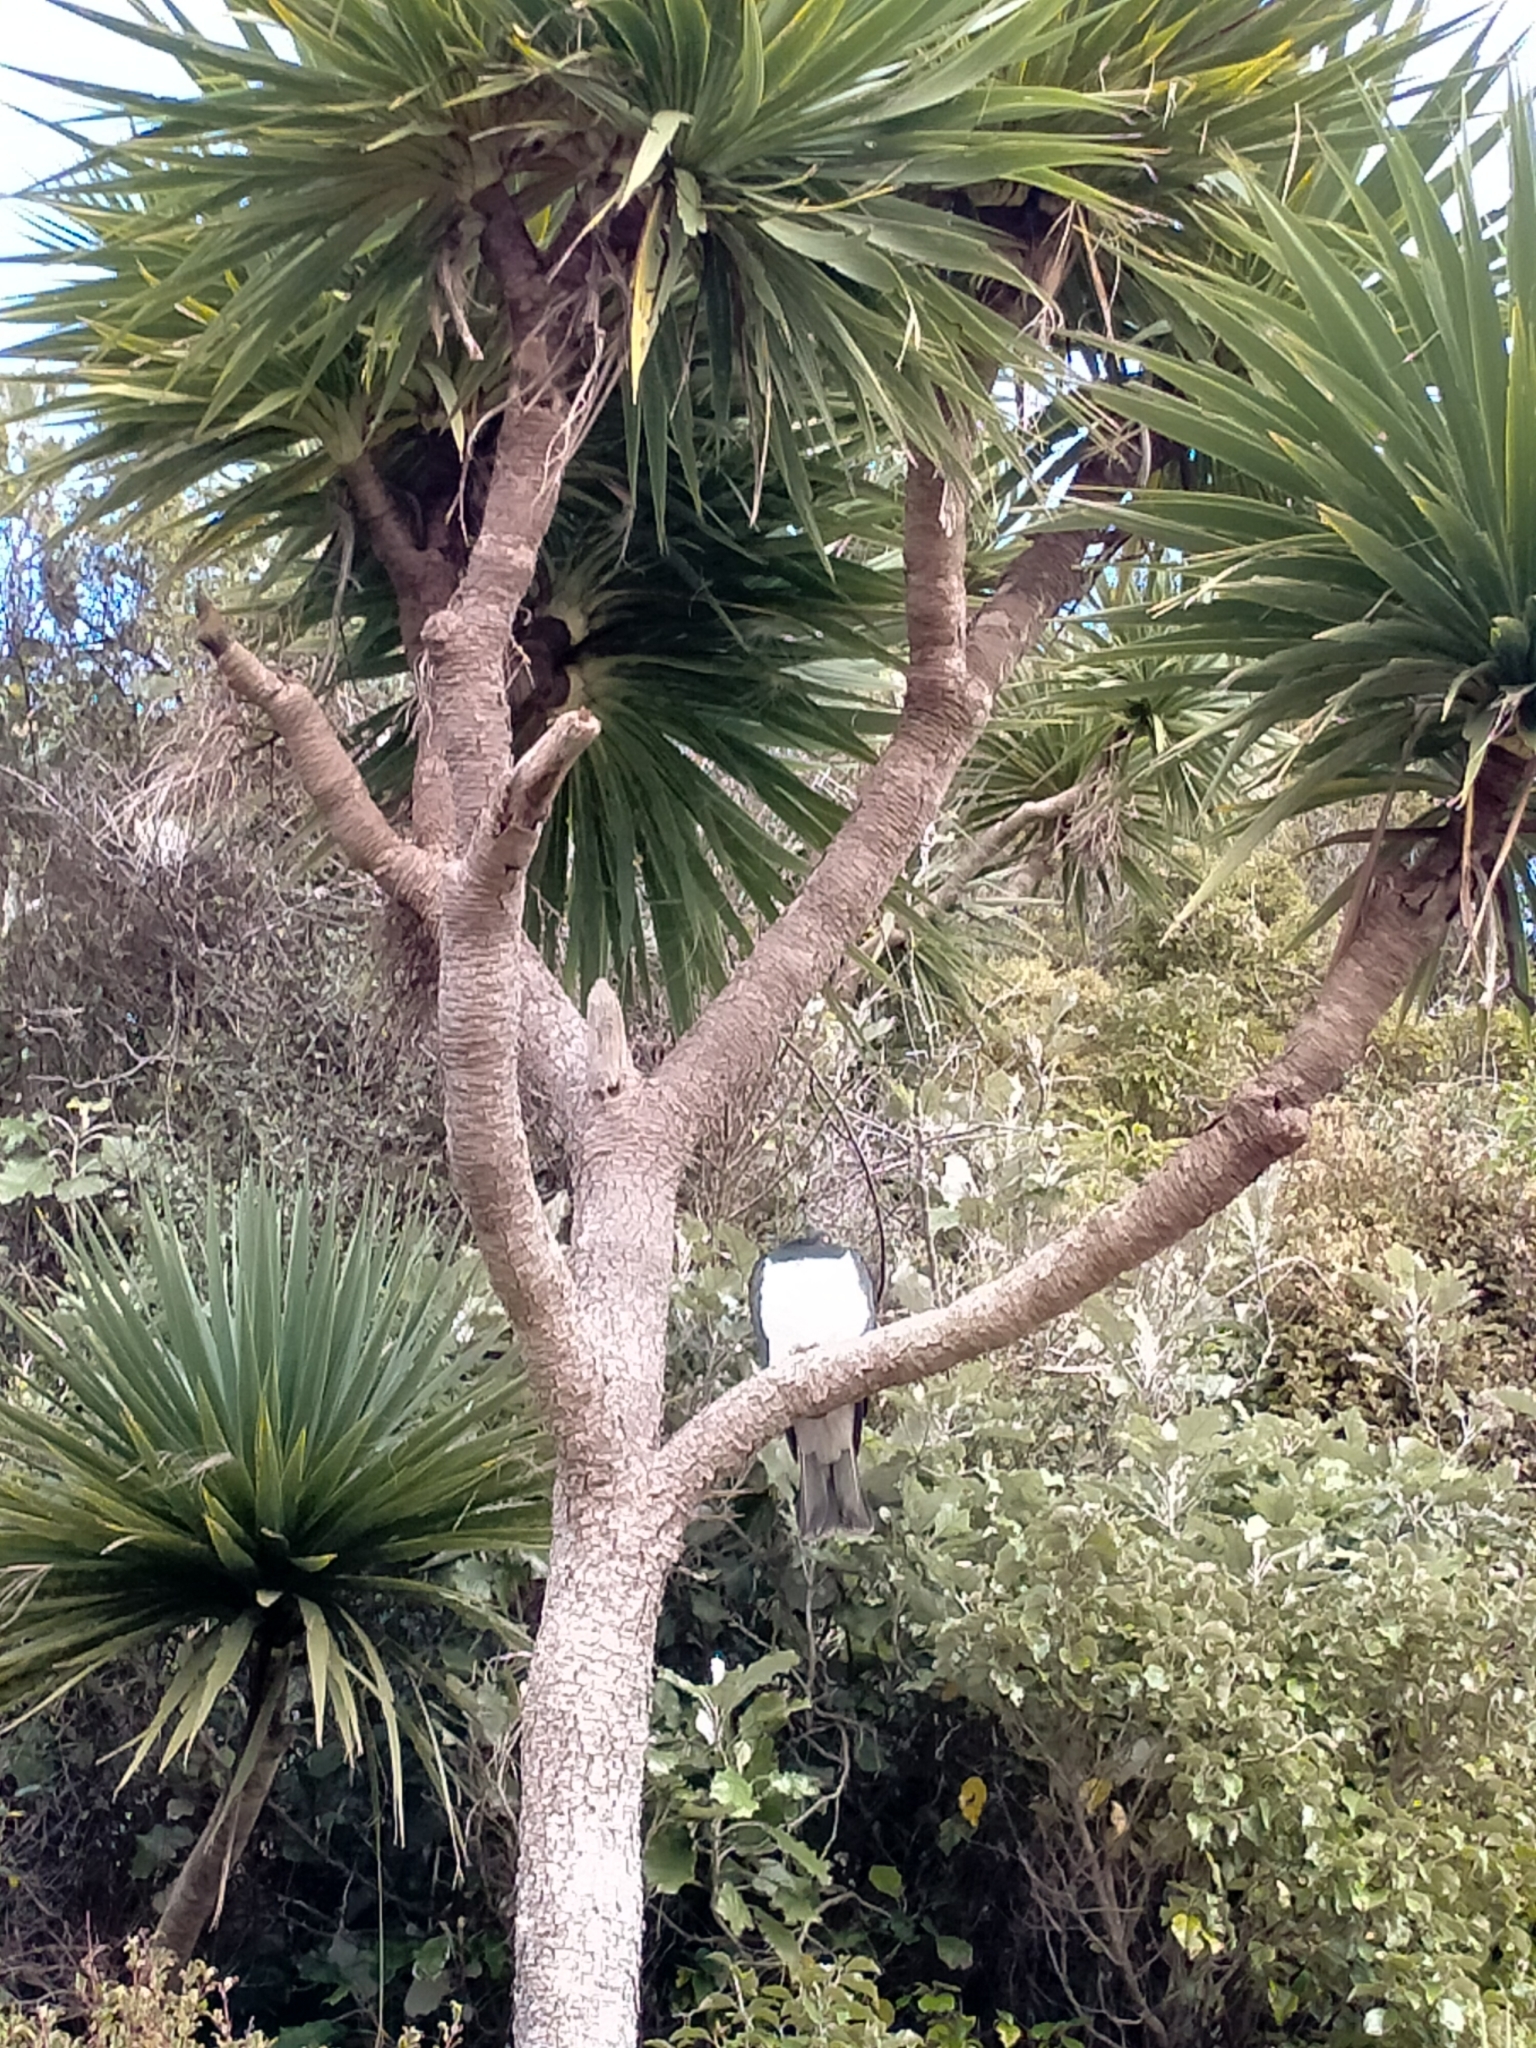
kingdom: Animalia
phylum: Chordata
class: Aves
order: Columbiformes
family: Columbidae
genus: Hemiphaga
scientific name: Hemiphaga novaeseelandiae
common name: New zealand pigeon
